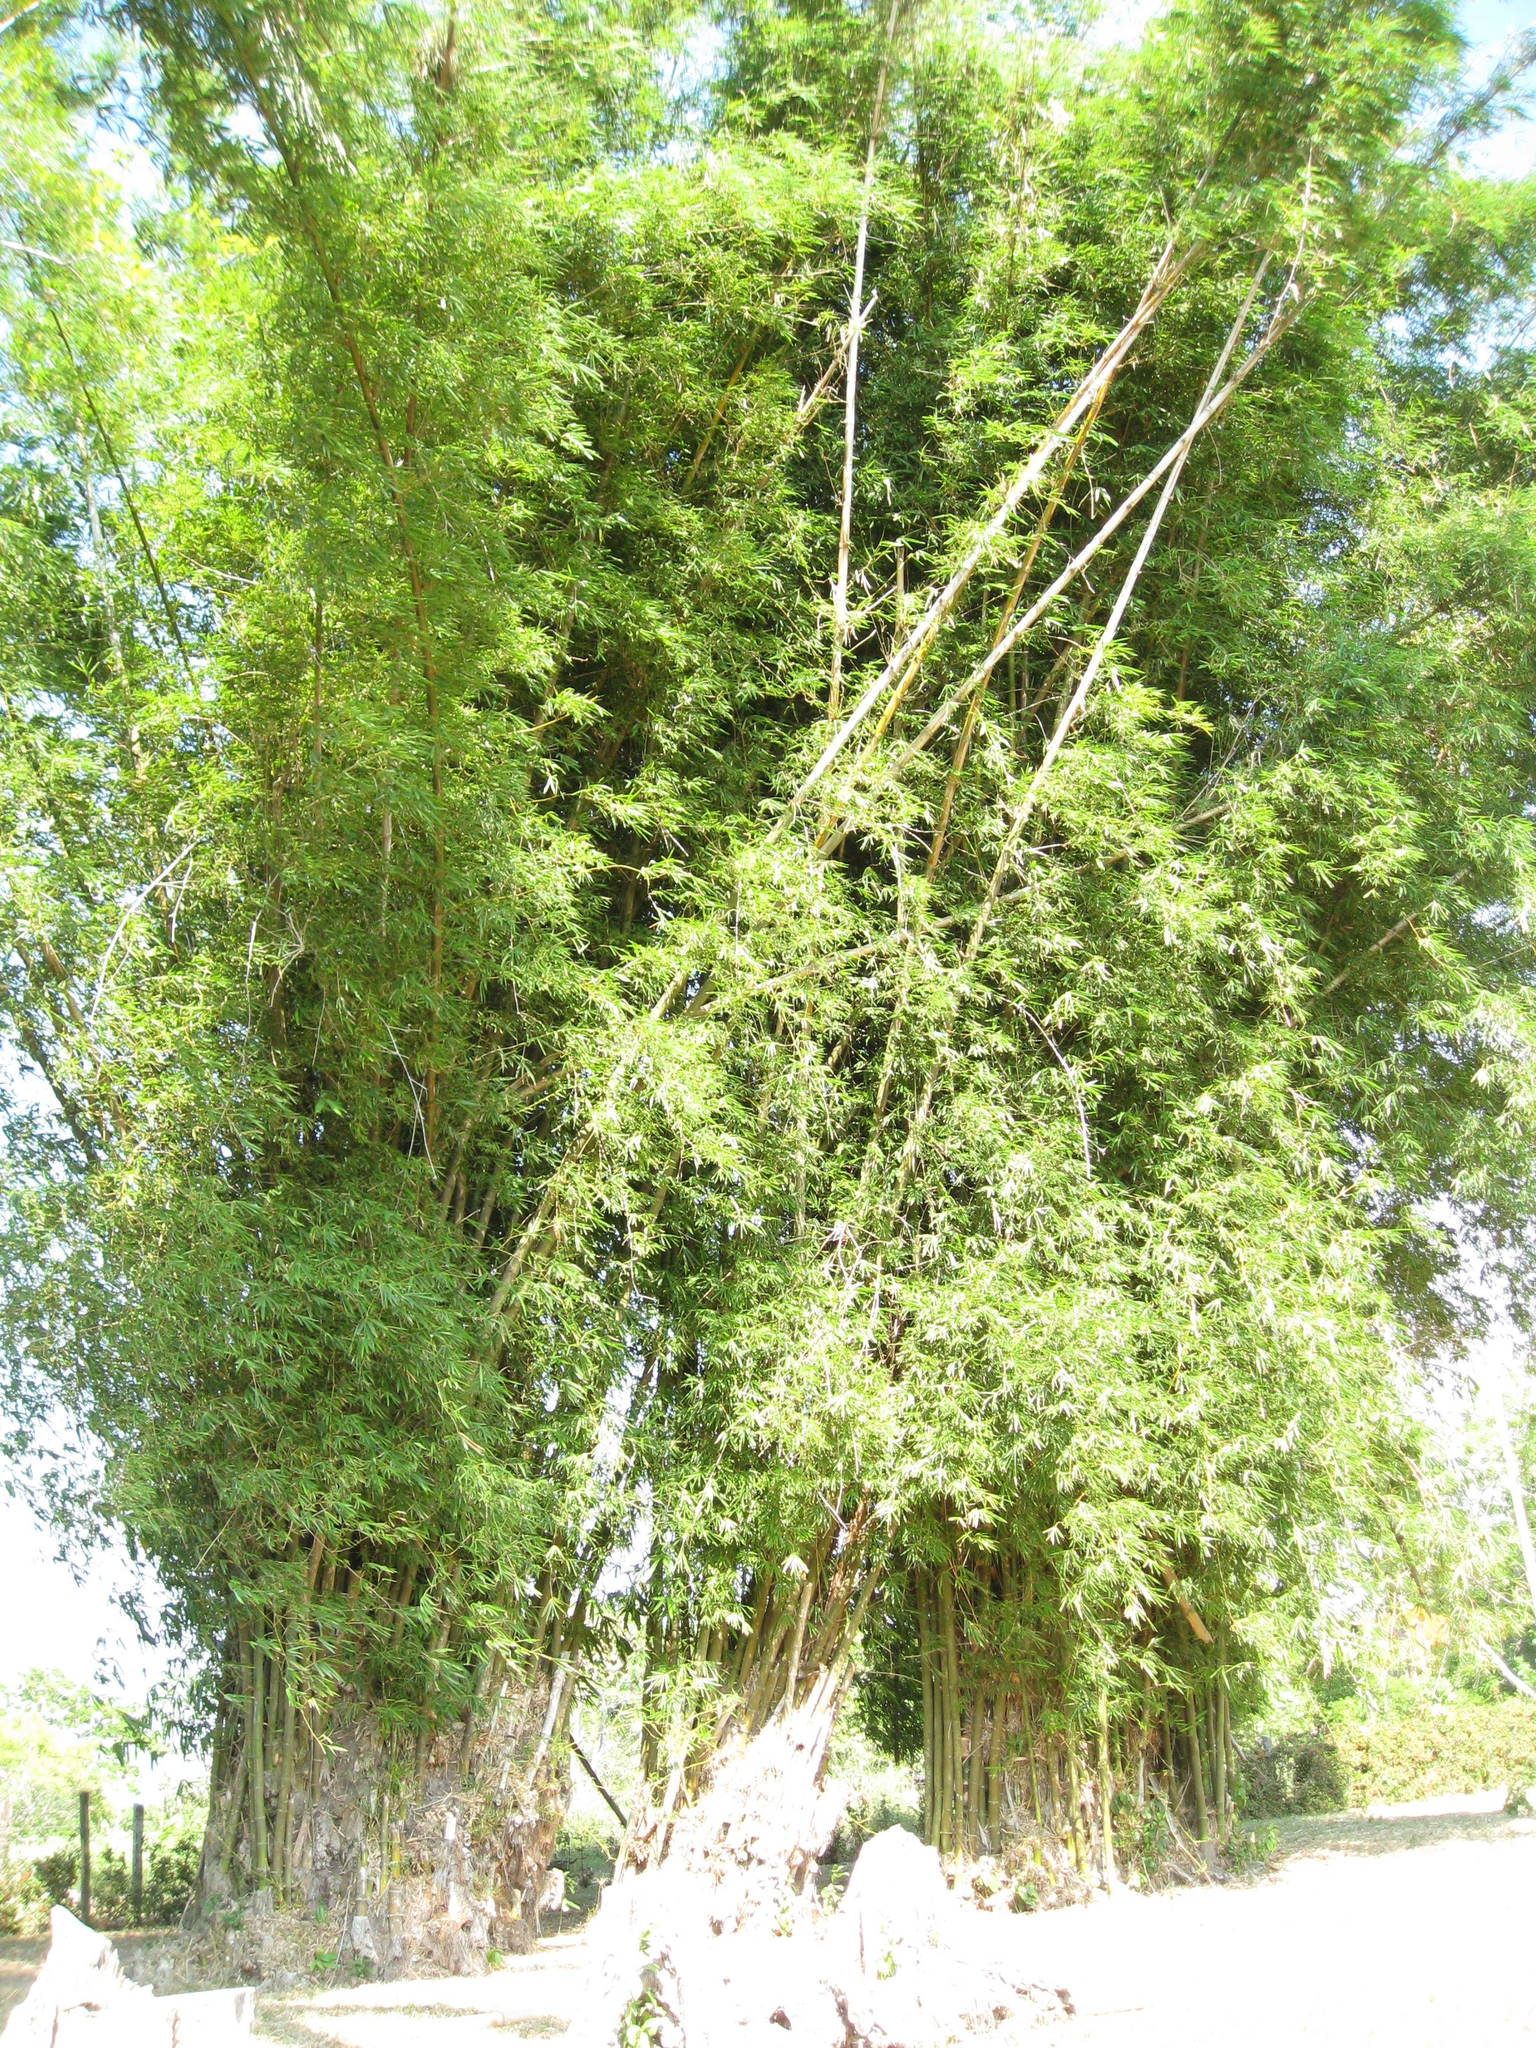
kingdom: Plantae
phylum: Tracheophyta
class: Liliopsida
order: Poales
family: Poaceae
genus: Bambusa
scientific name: Bambusa vulgaris
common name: Common bamboo
